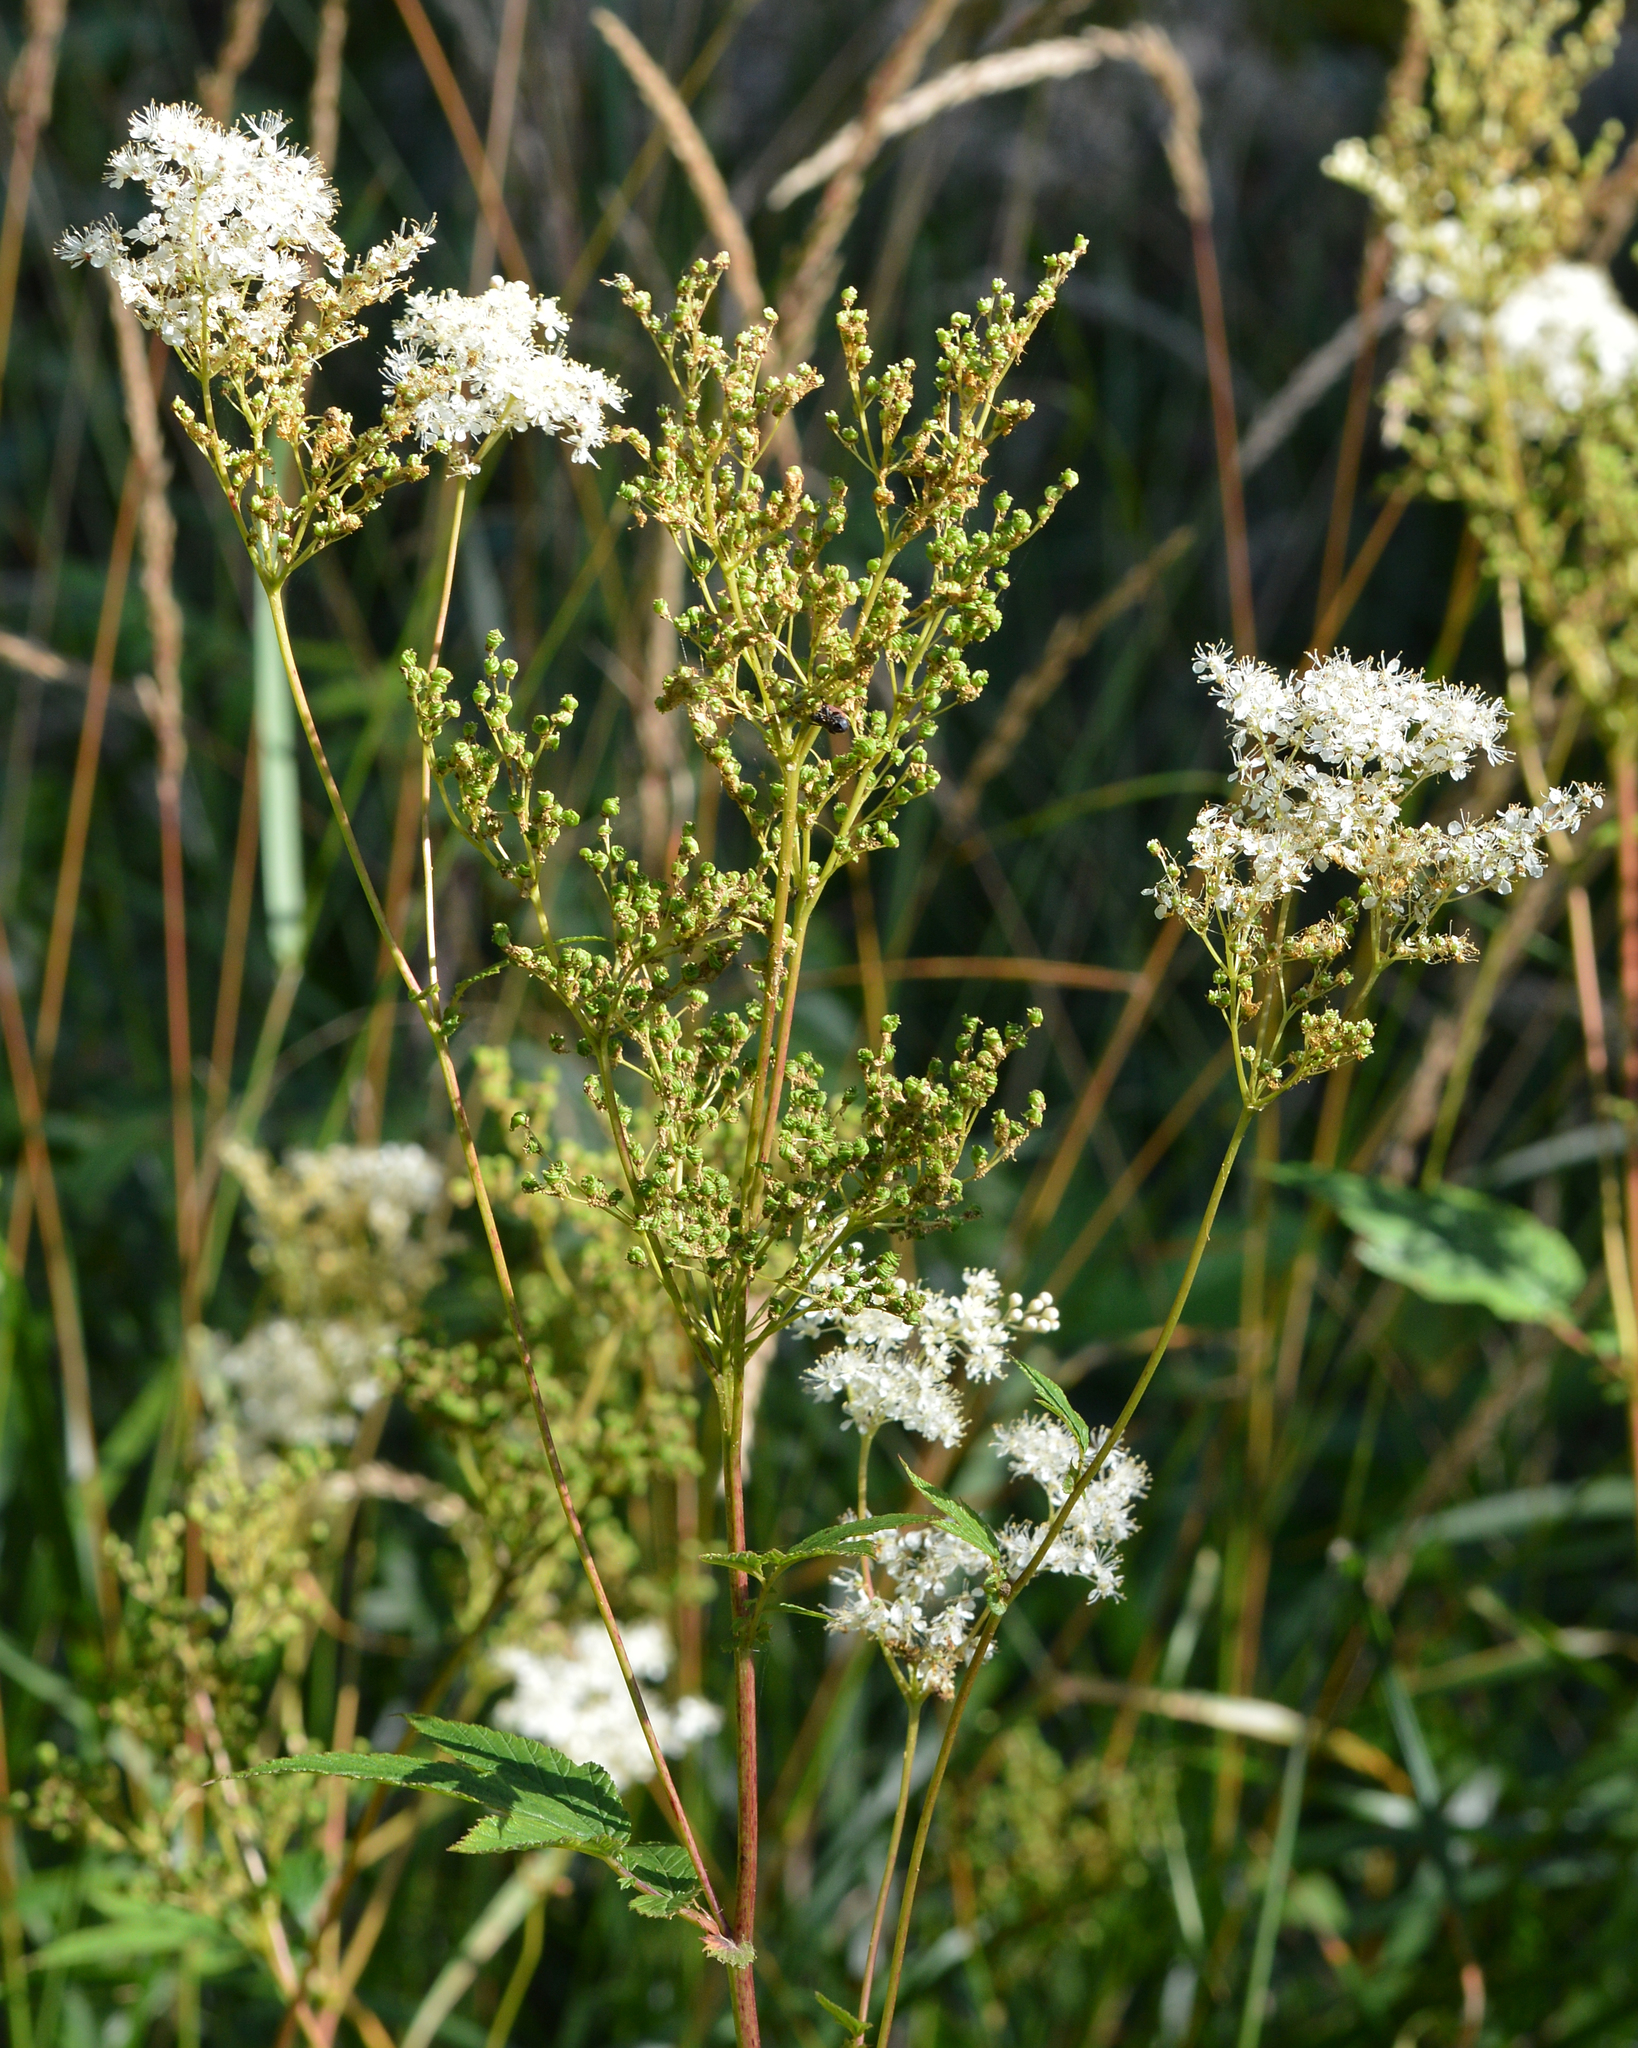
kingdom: Plantae
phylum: Tracheophyta
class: Magnoliopsida
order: Rosales
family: Rosaceae
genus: Filipendula
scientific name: Filipendula ulmaria
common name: Meadowsweet
